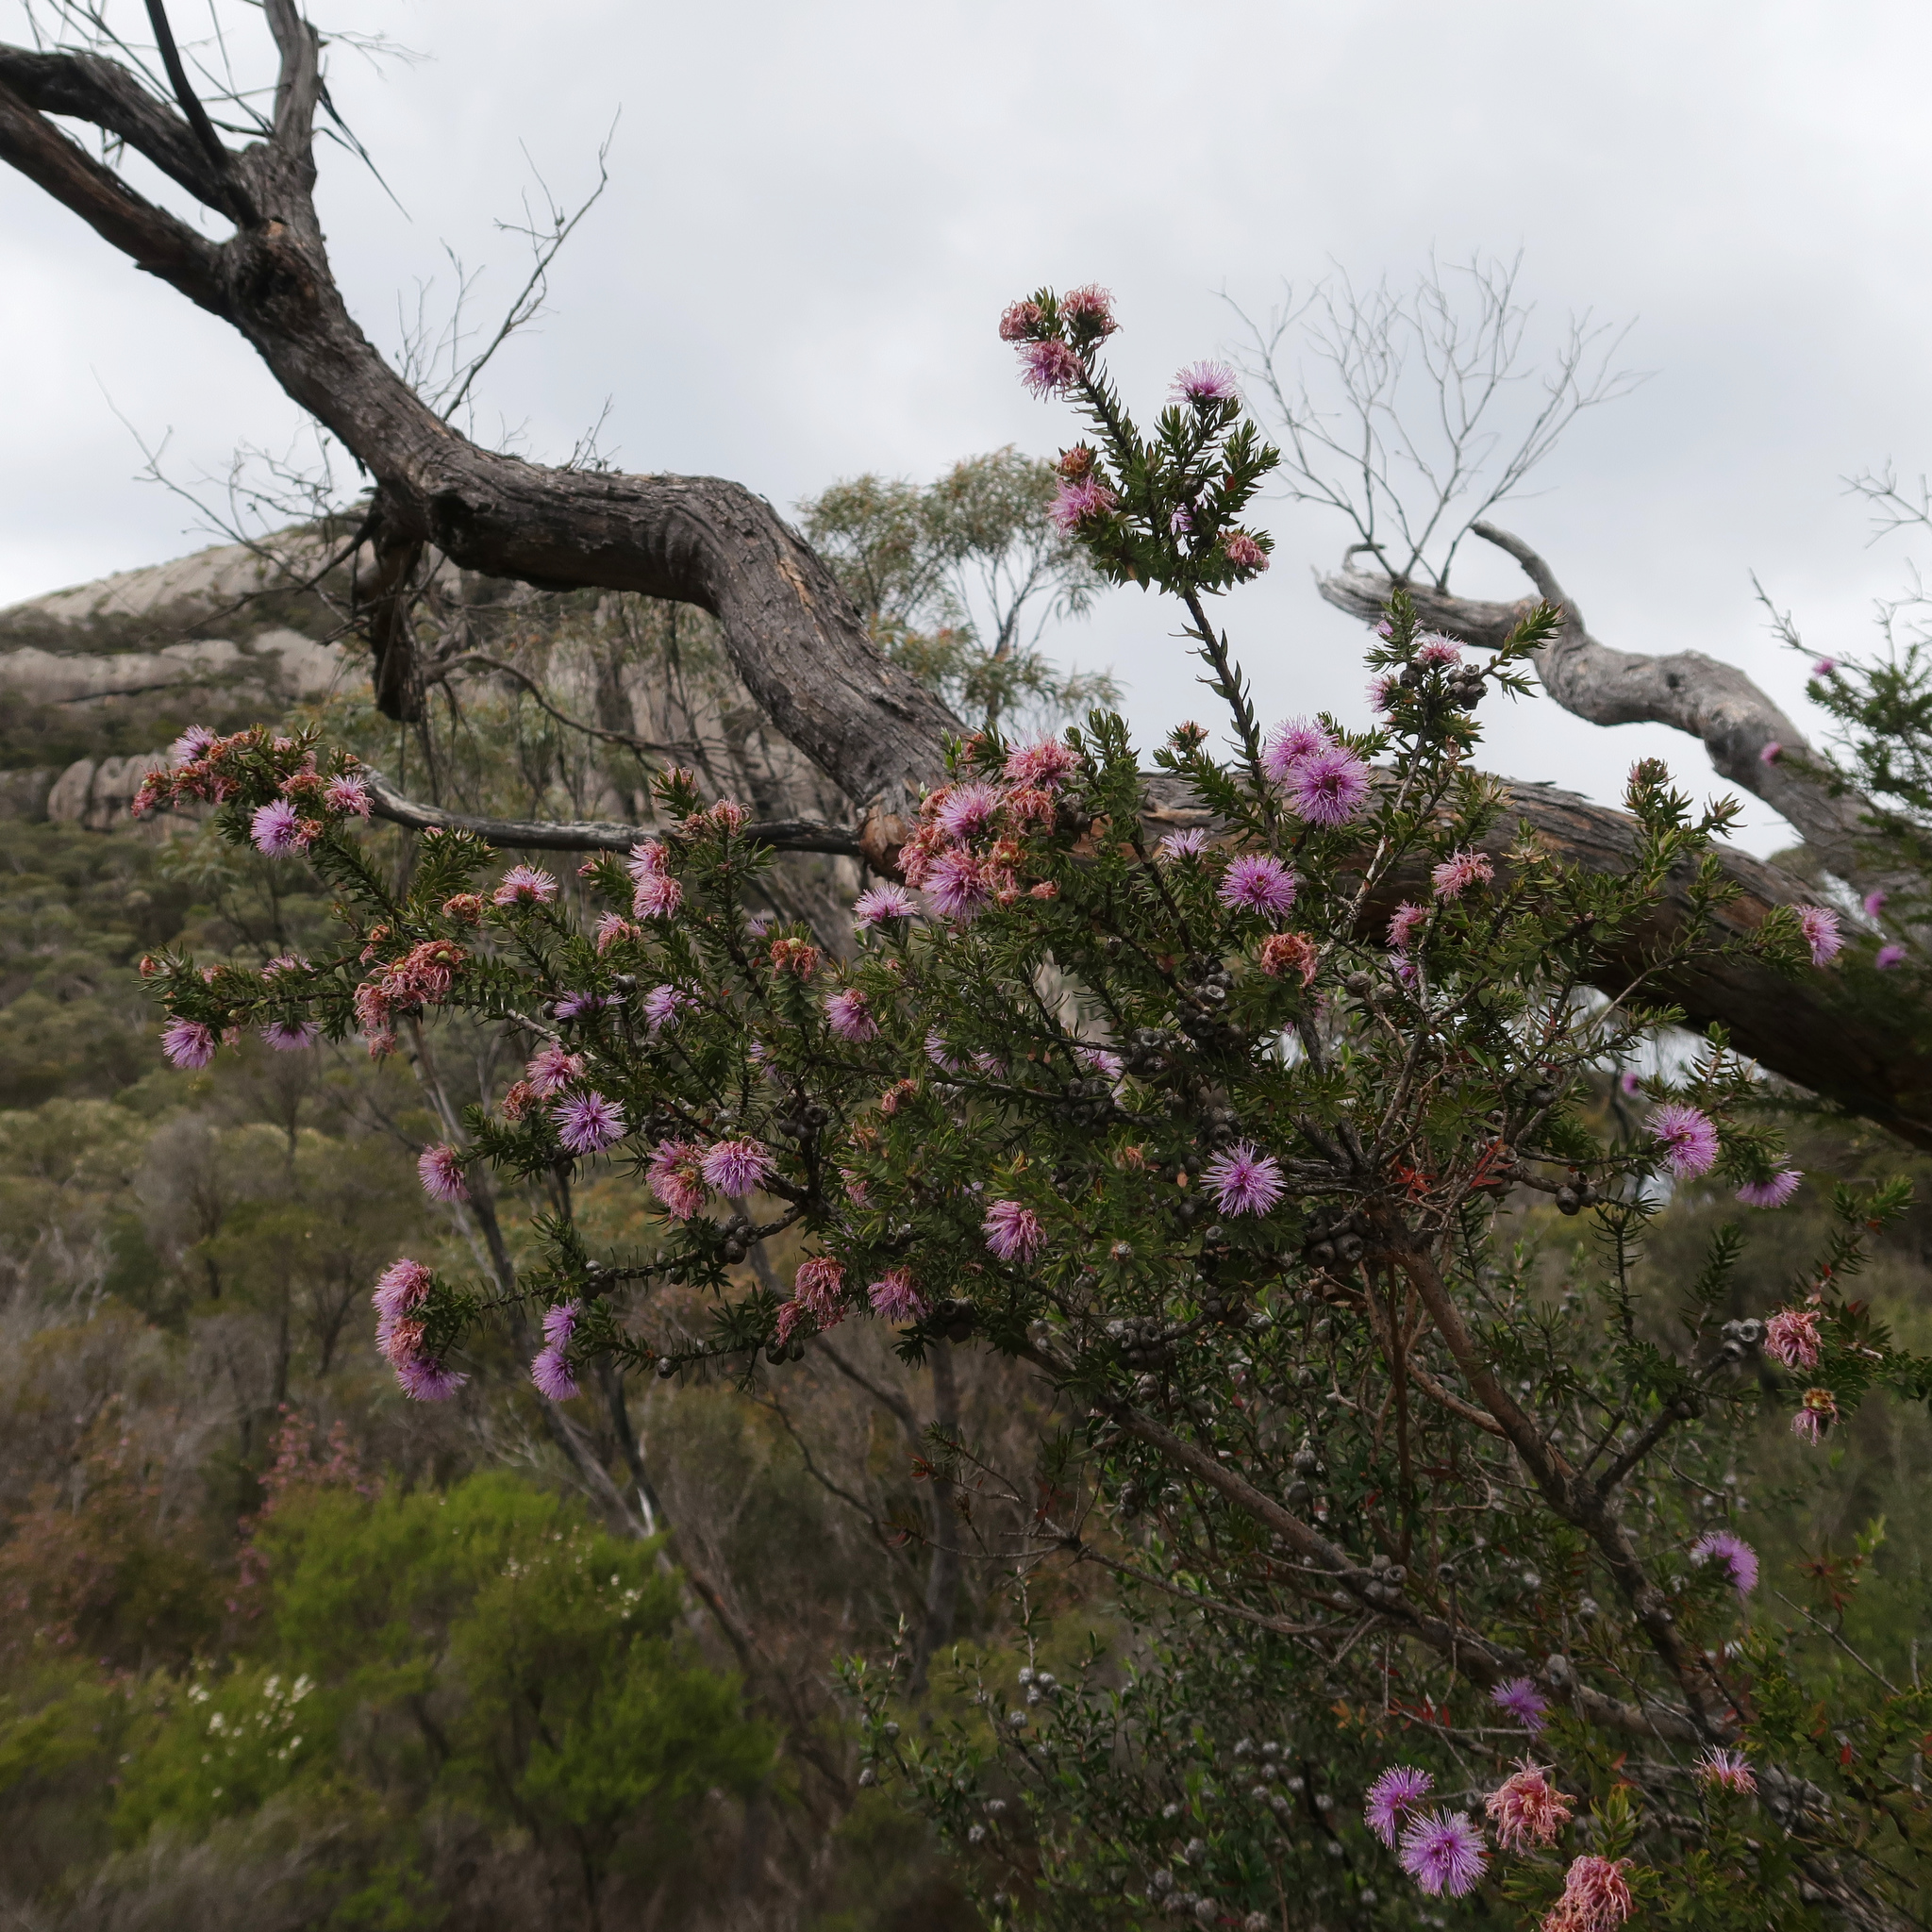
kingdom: Plantae
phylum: Tracheophyta
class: Magnoliopsida
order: Myrtales
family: Myrtaceae
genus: Melaleuca
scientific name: Melaleuca squamea
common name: Swamp melaleuca
